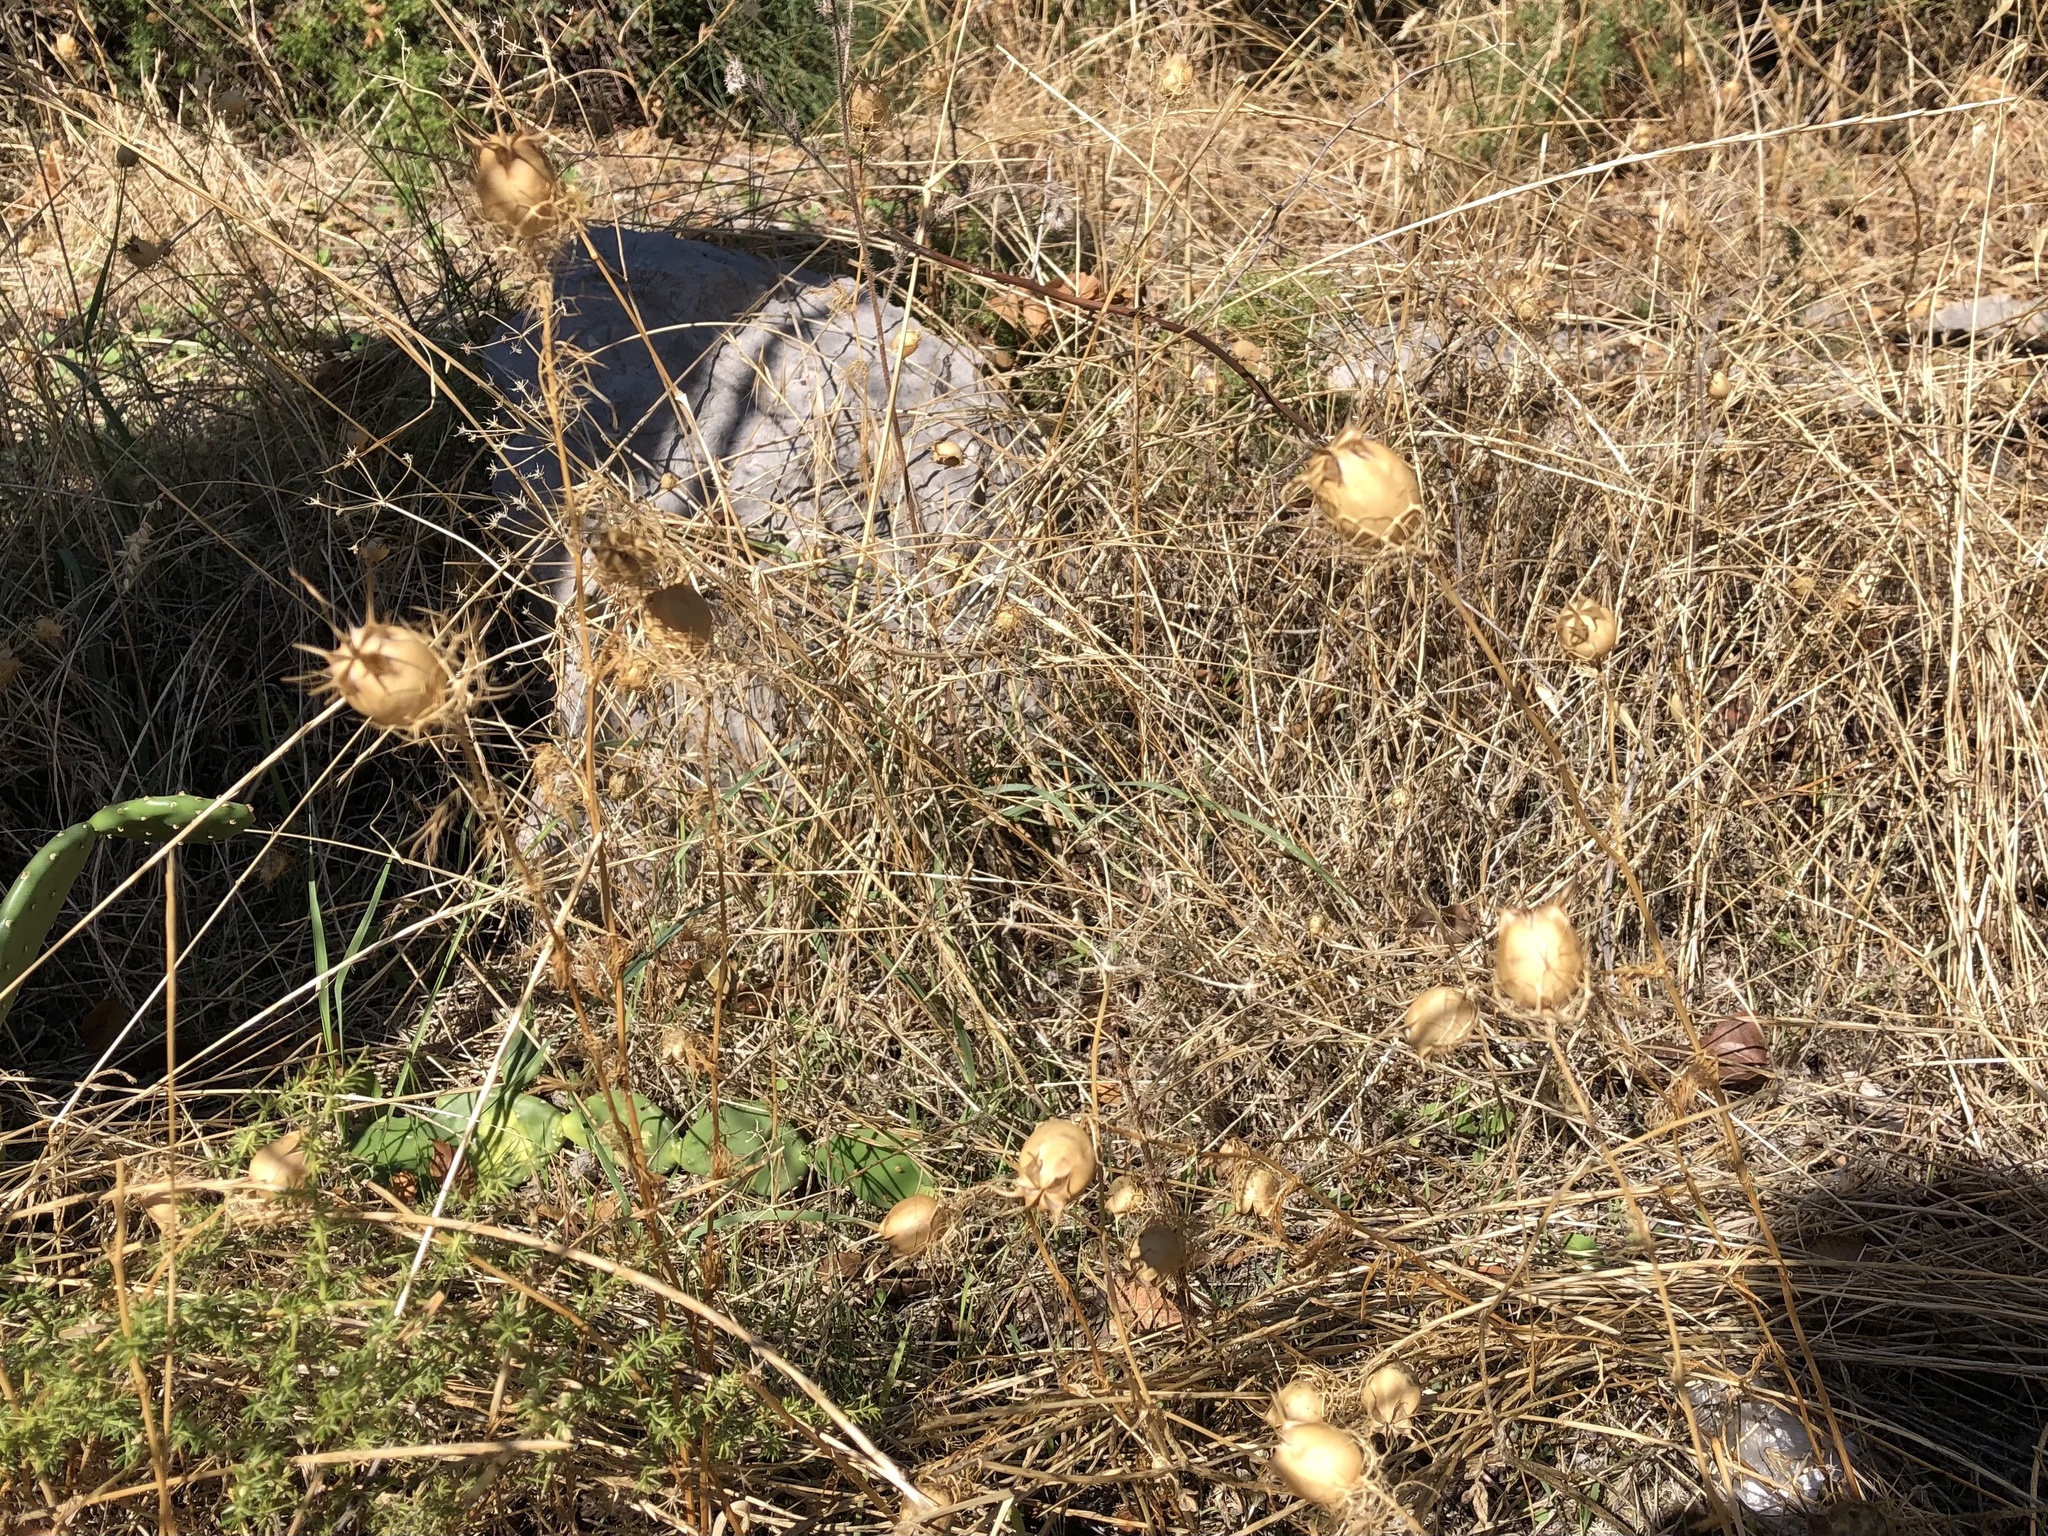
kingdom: Plantae
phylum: Tracheophyta
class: Magnoliopsida
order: Ranunculales
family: Ranunculaceae
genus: Nigella
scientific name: Nigella damascena
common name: Love-in-a-mist
